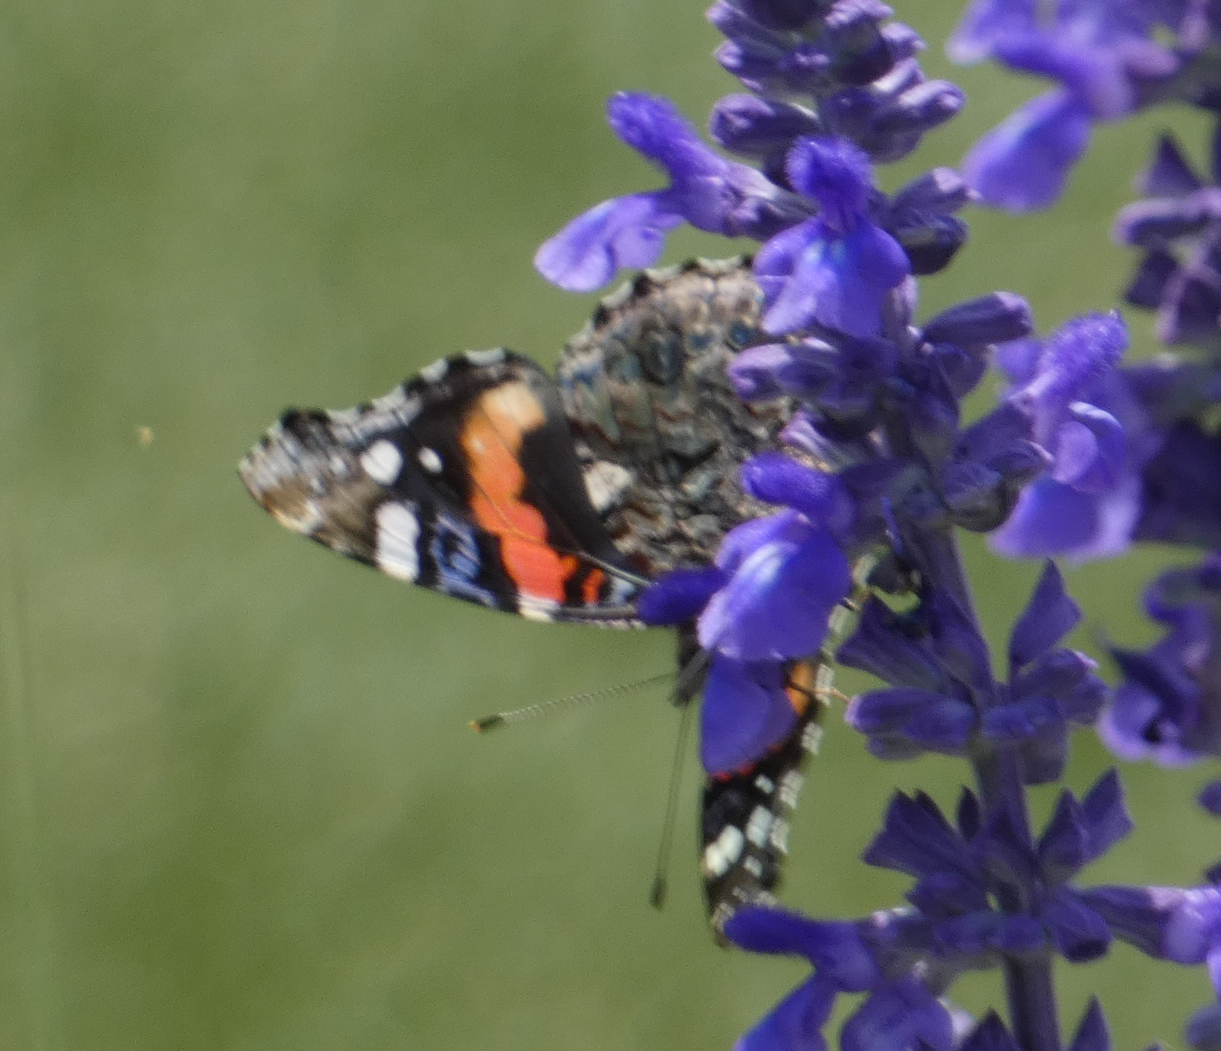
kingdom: Animalia
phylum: Arthropoda
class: Insecta
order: Lepidoptera
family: Nymphalidae
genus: Vanessa
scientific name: Vanessa atalanta
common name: Red admiral
